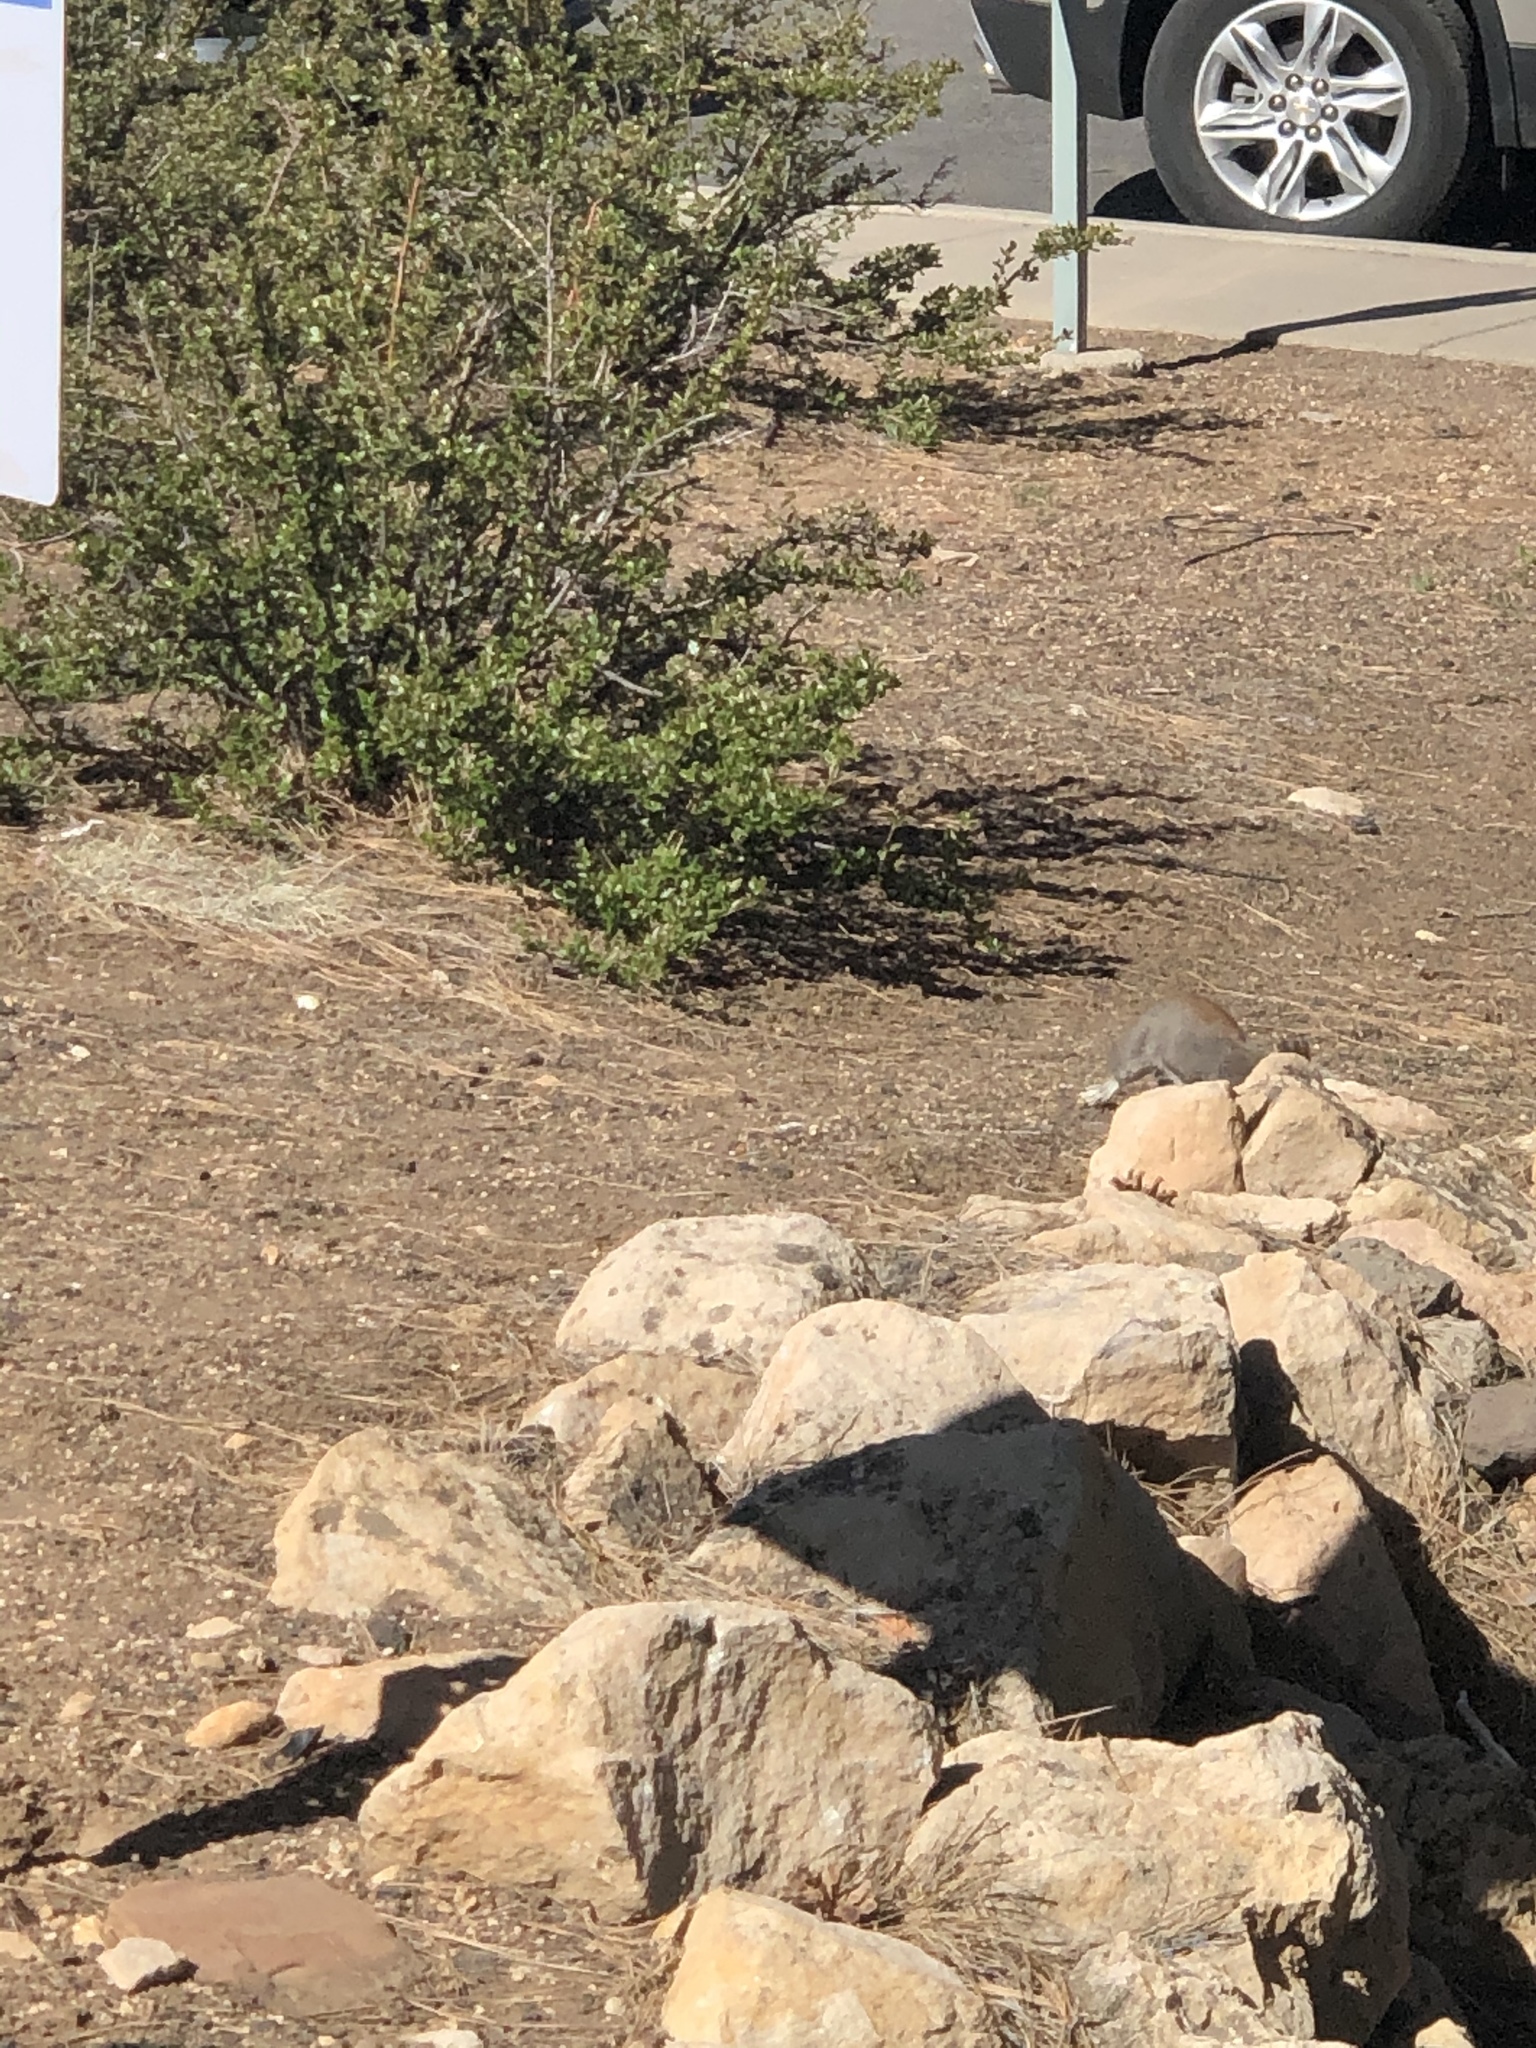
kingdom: Animalia
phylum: Chordata
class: Mammalia
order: Rodentia
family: Sciuridae
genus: Sciurus
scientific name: Sciurus aberti
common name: Abert's squirrel
